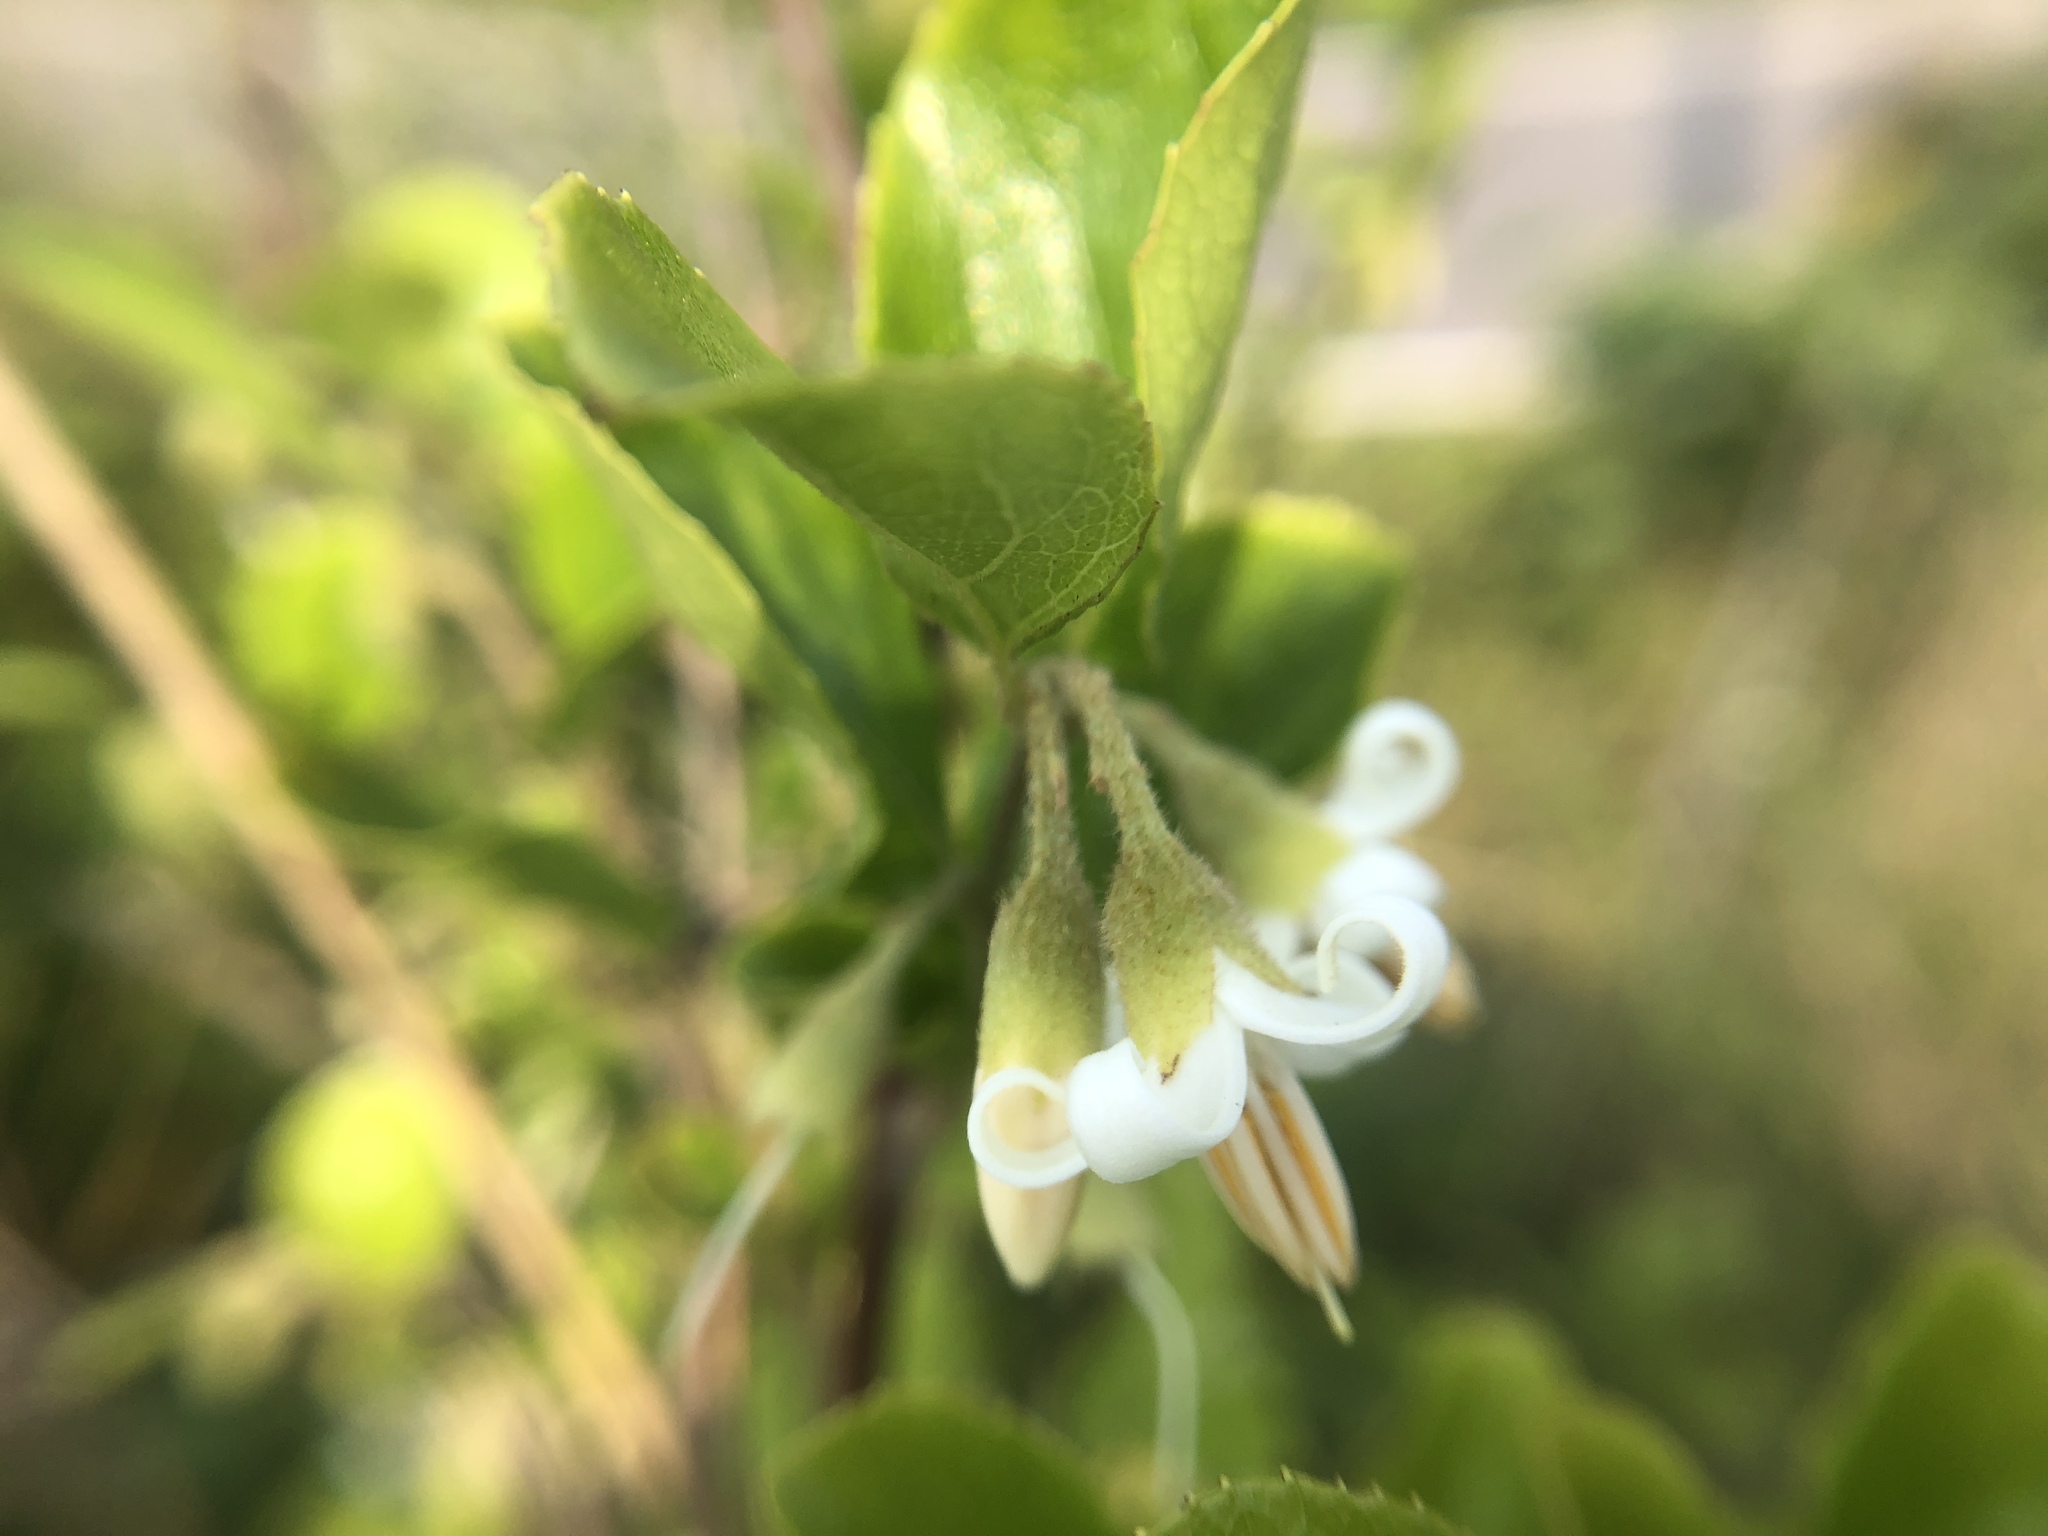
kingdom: Plantae
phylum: Tracheophyta
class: Magnoliopsida
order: Ericales
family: Styracaceae
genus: Styrax
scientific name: Styrax faberi
